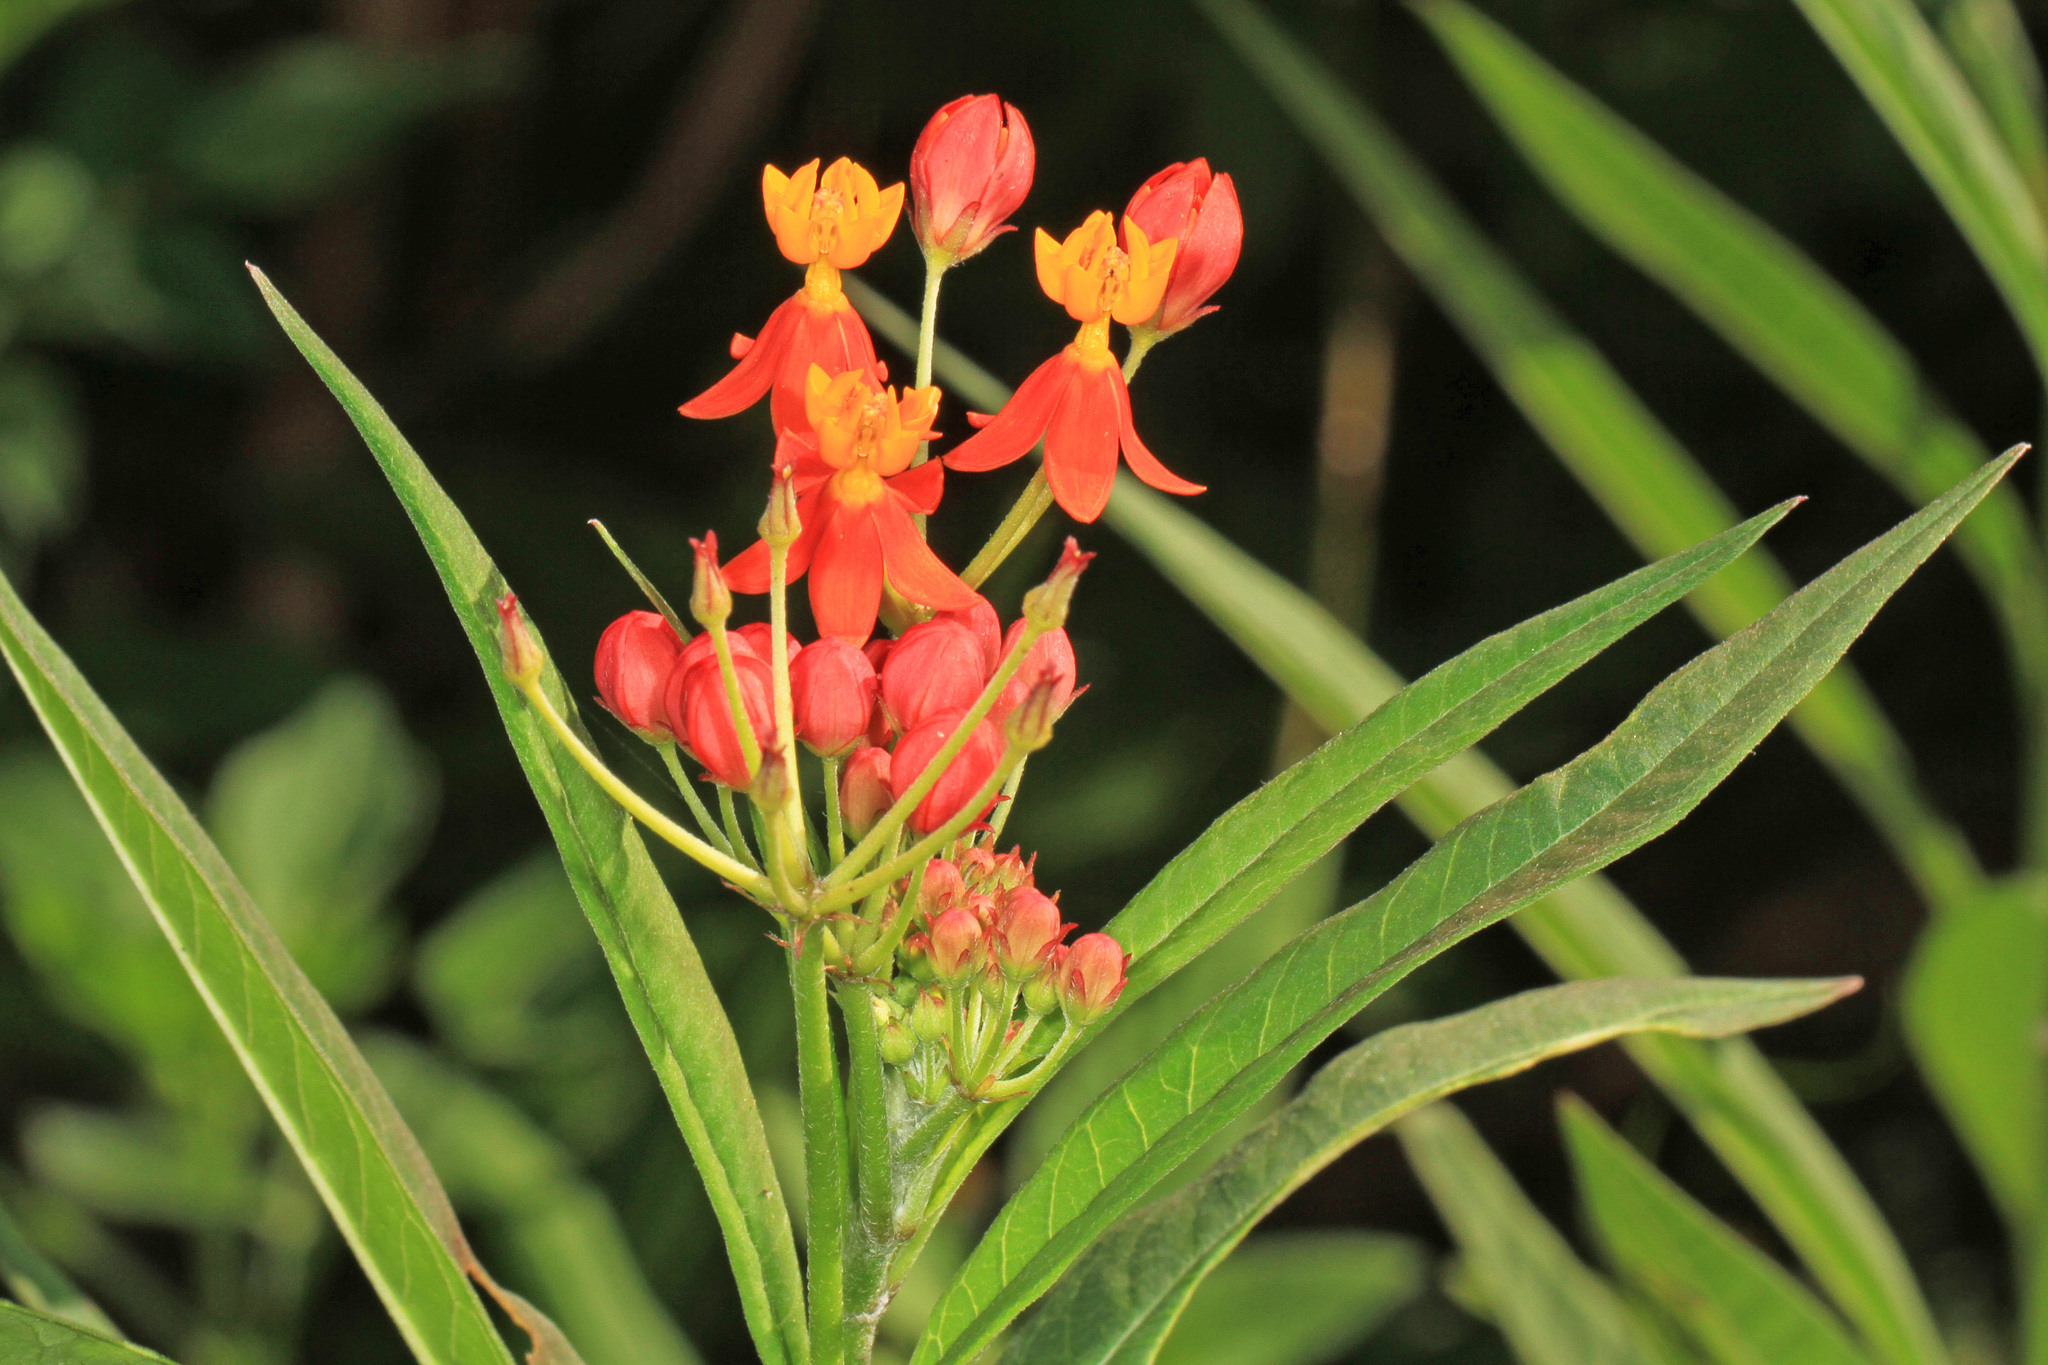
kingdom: Plantae
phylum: Tracheophyta
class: Magnoliopsida
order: Gentianales
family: Apocynaceae
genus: Asclepias
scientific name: Asclepias curassavica
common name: Bloodflower
